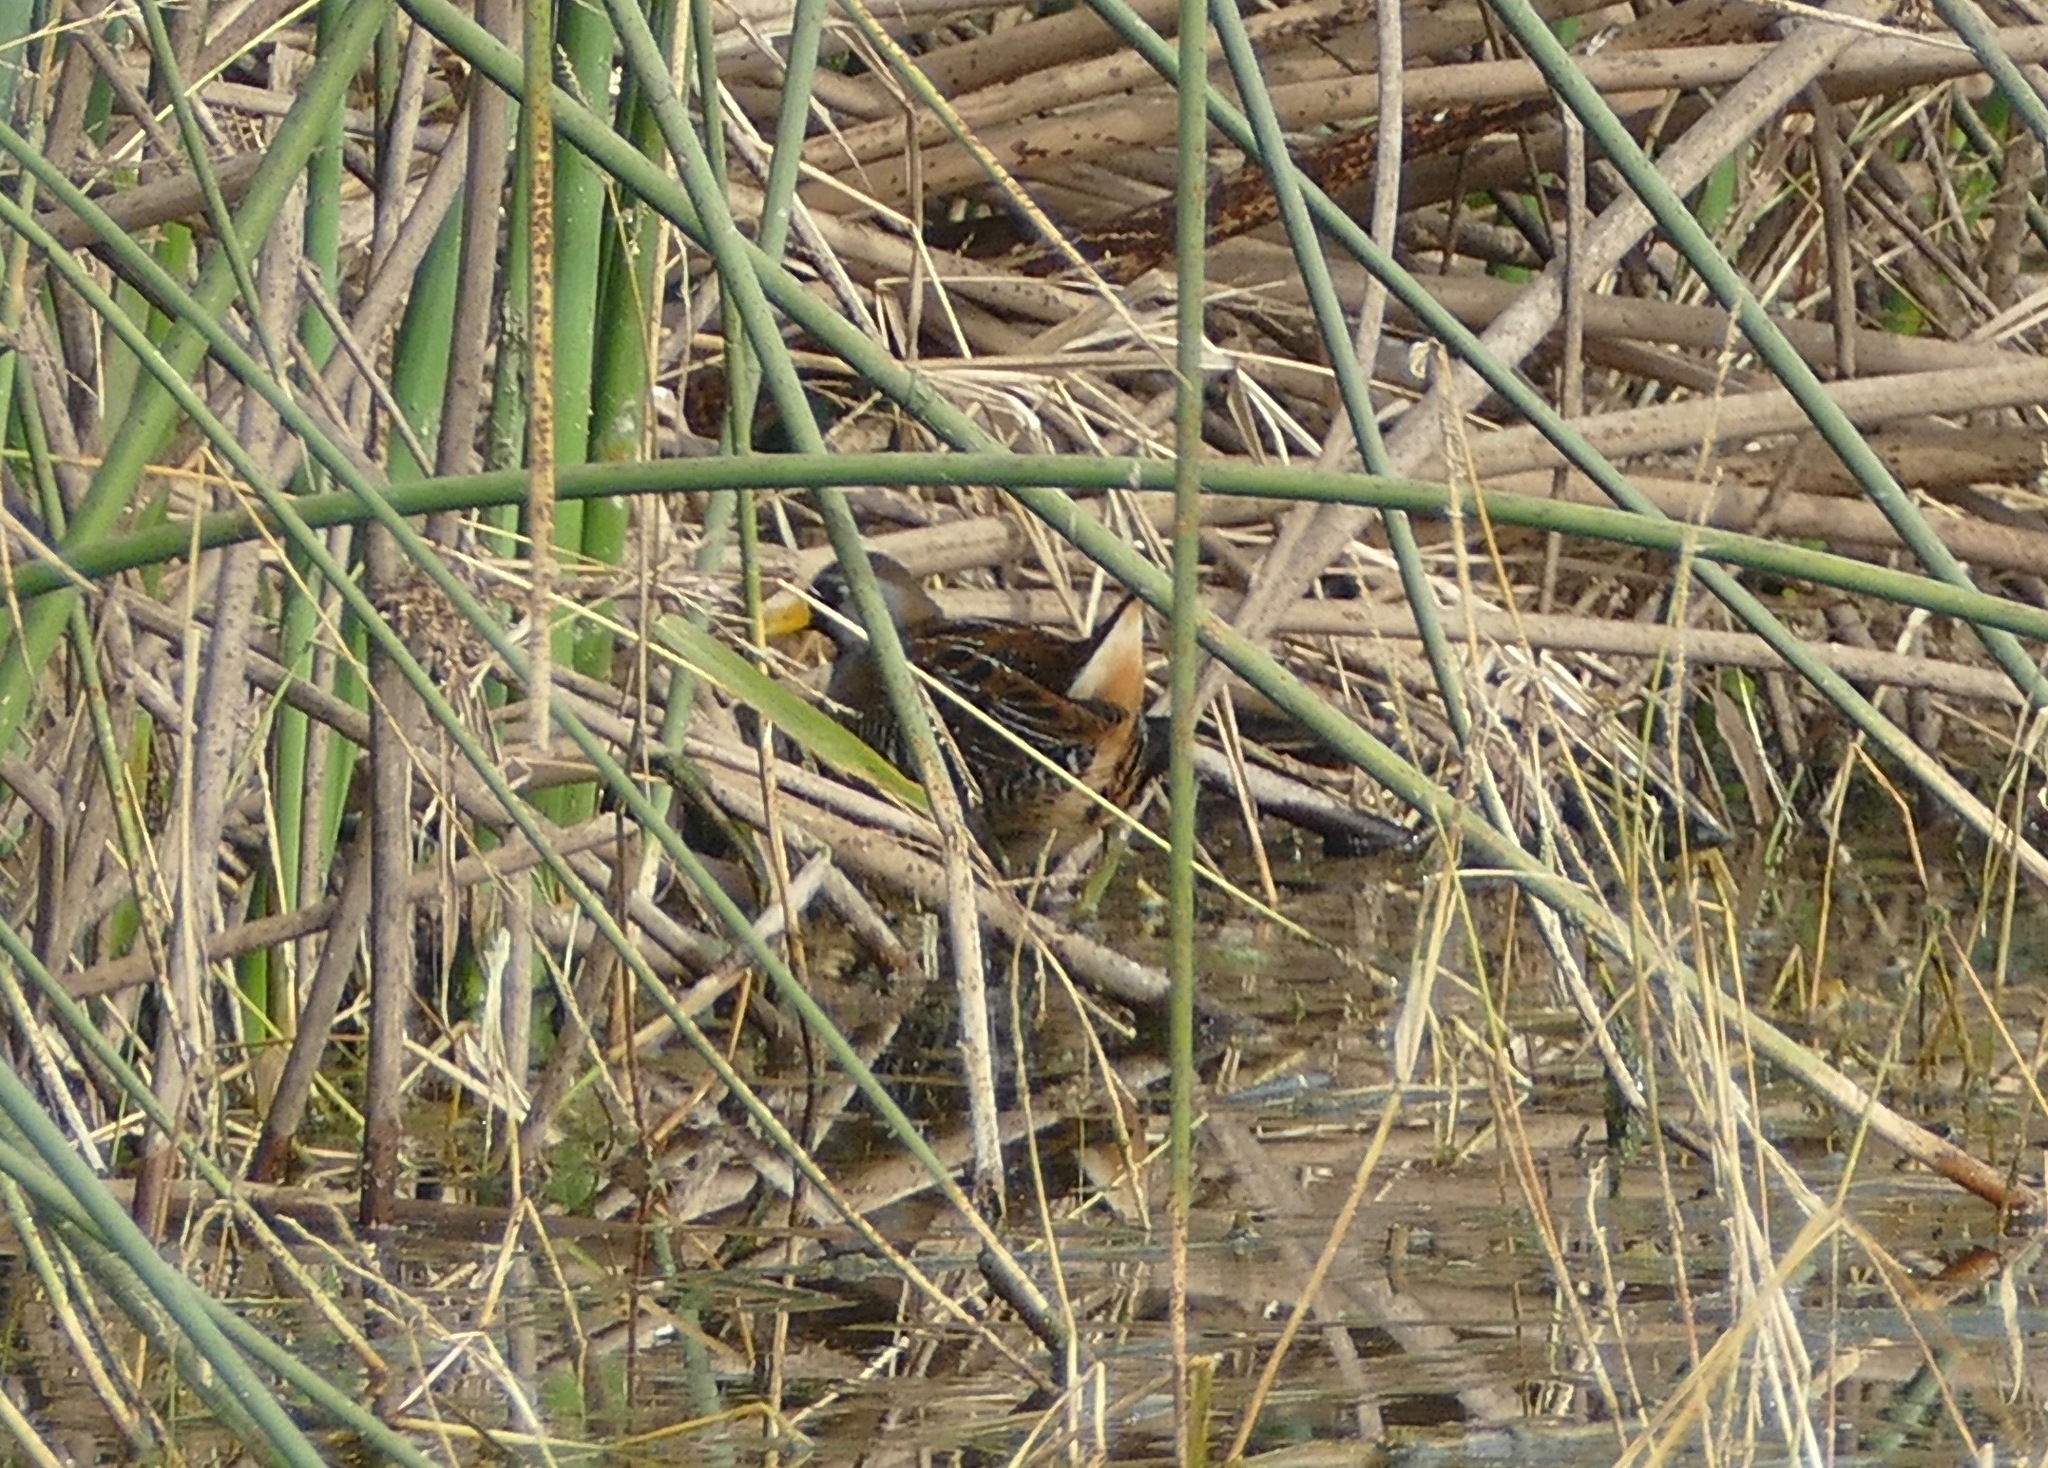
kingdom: Animalia
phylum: Chordata
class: Aves
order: Gruiformes
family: Rallidae
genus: Porzana
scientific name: Porzana carolina
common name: Sora
